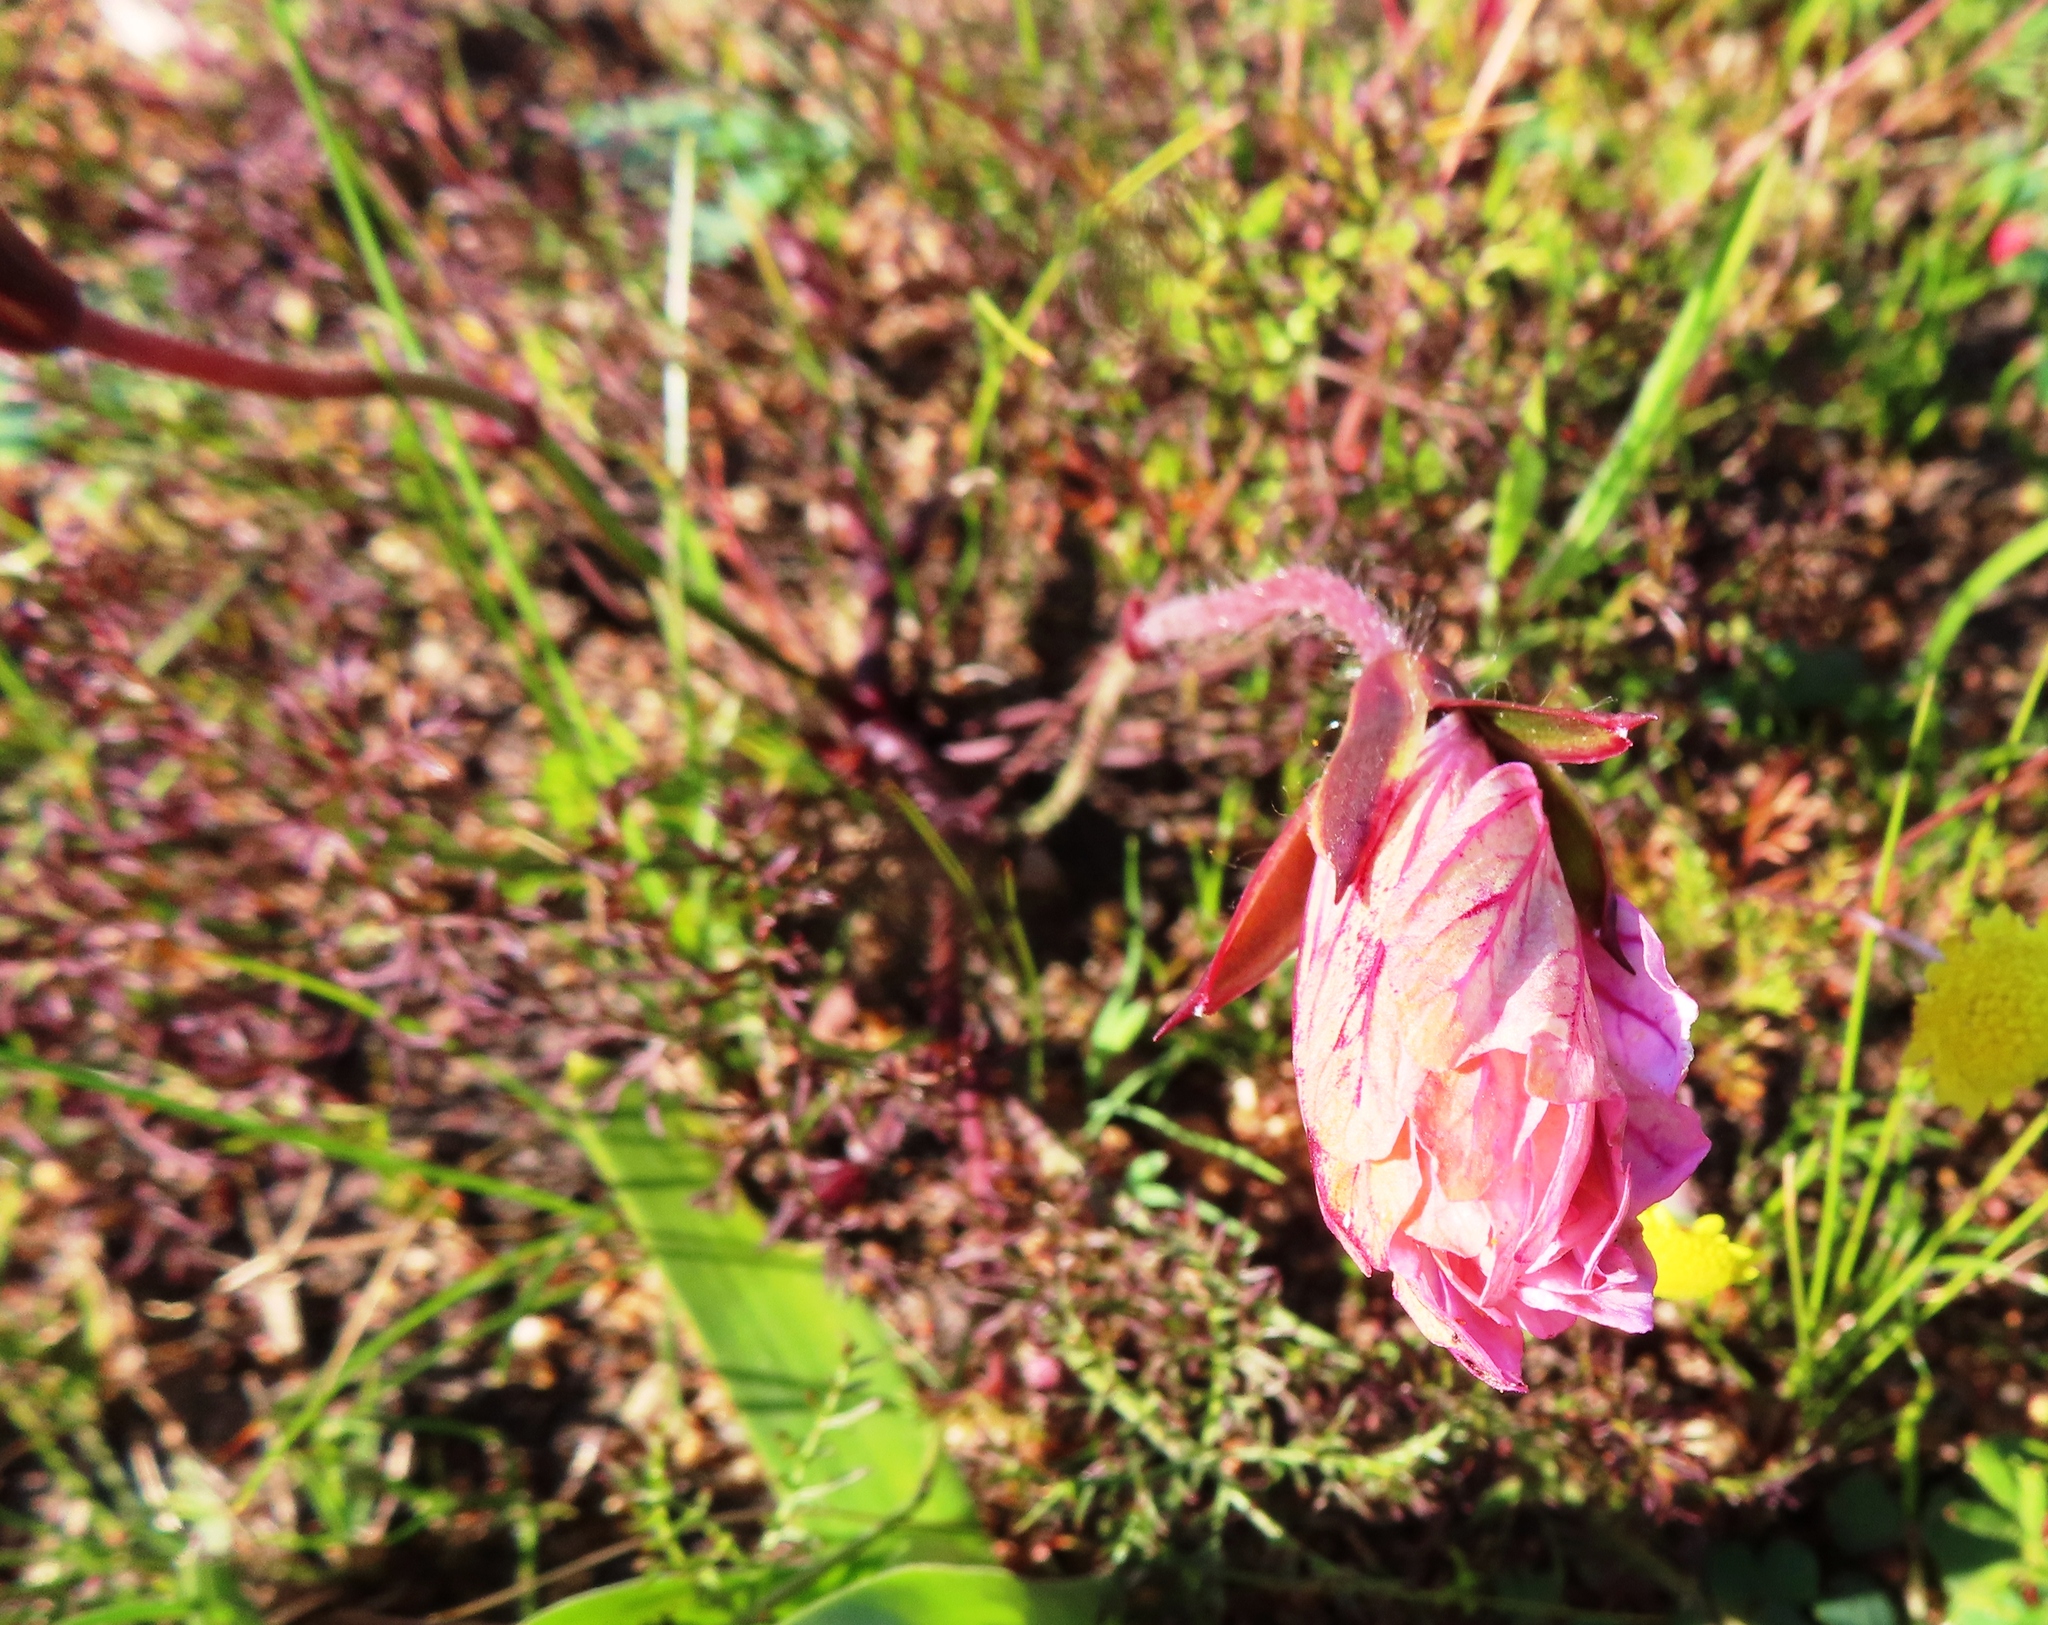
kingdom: Plantae
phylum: Tracheophyta
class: Magnoliopsida
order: Geraniales
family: Geraniaceae
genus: Monsonia
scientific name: Monsonia speciosa
